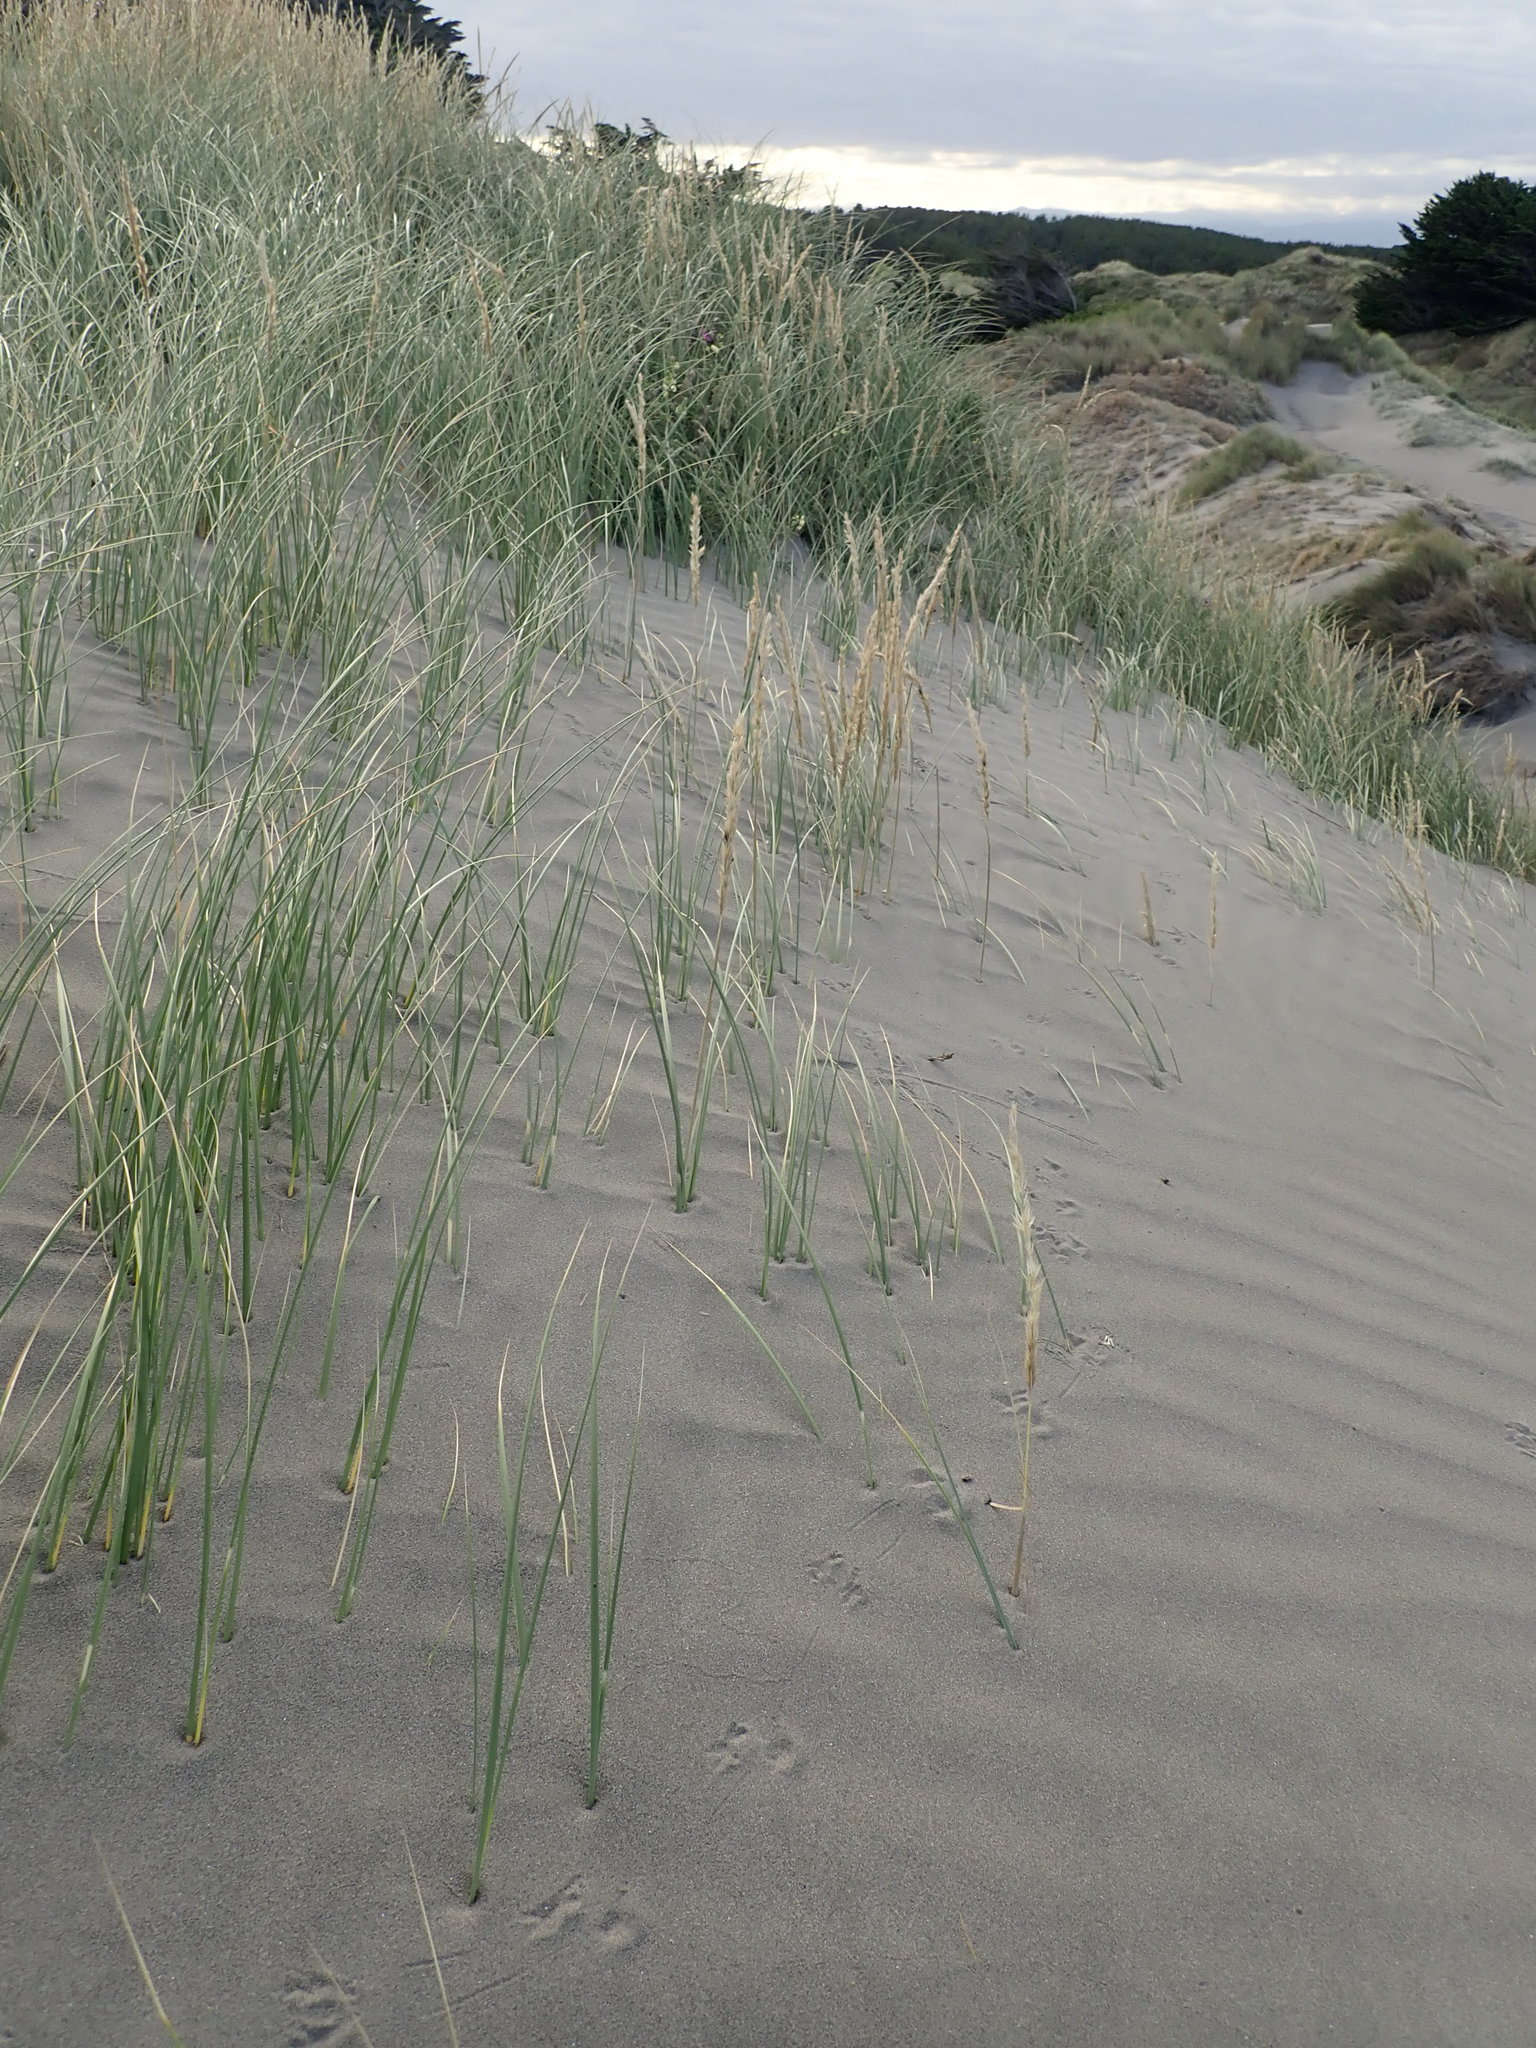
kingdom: Plantae
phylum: Tracheophyta
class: Liliopsida
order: Poales
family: Poaceae
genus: Calamagrostis
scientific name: Calamagrostis arenaria
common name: European beachgrass
